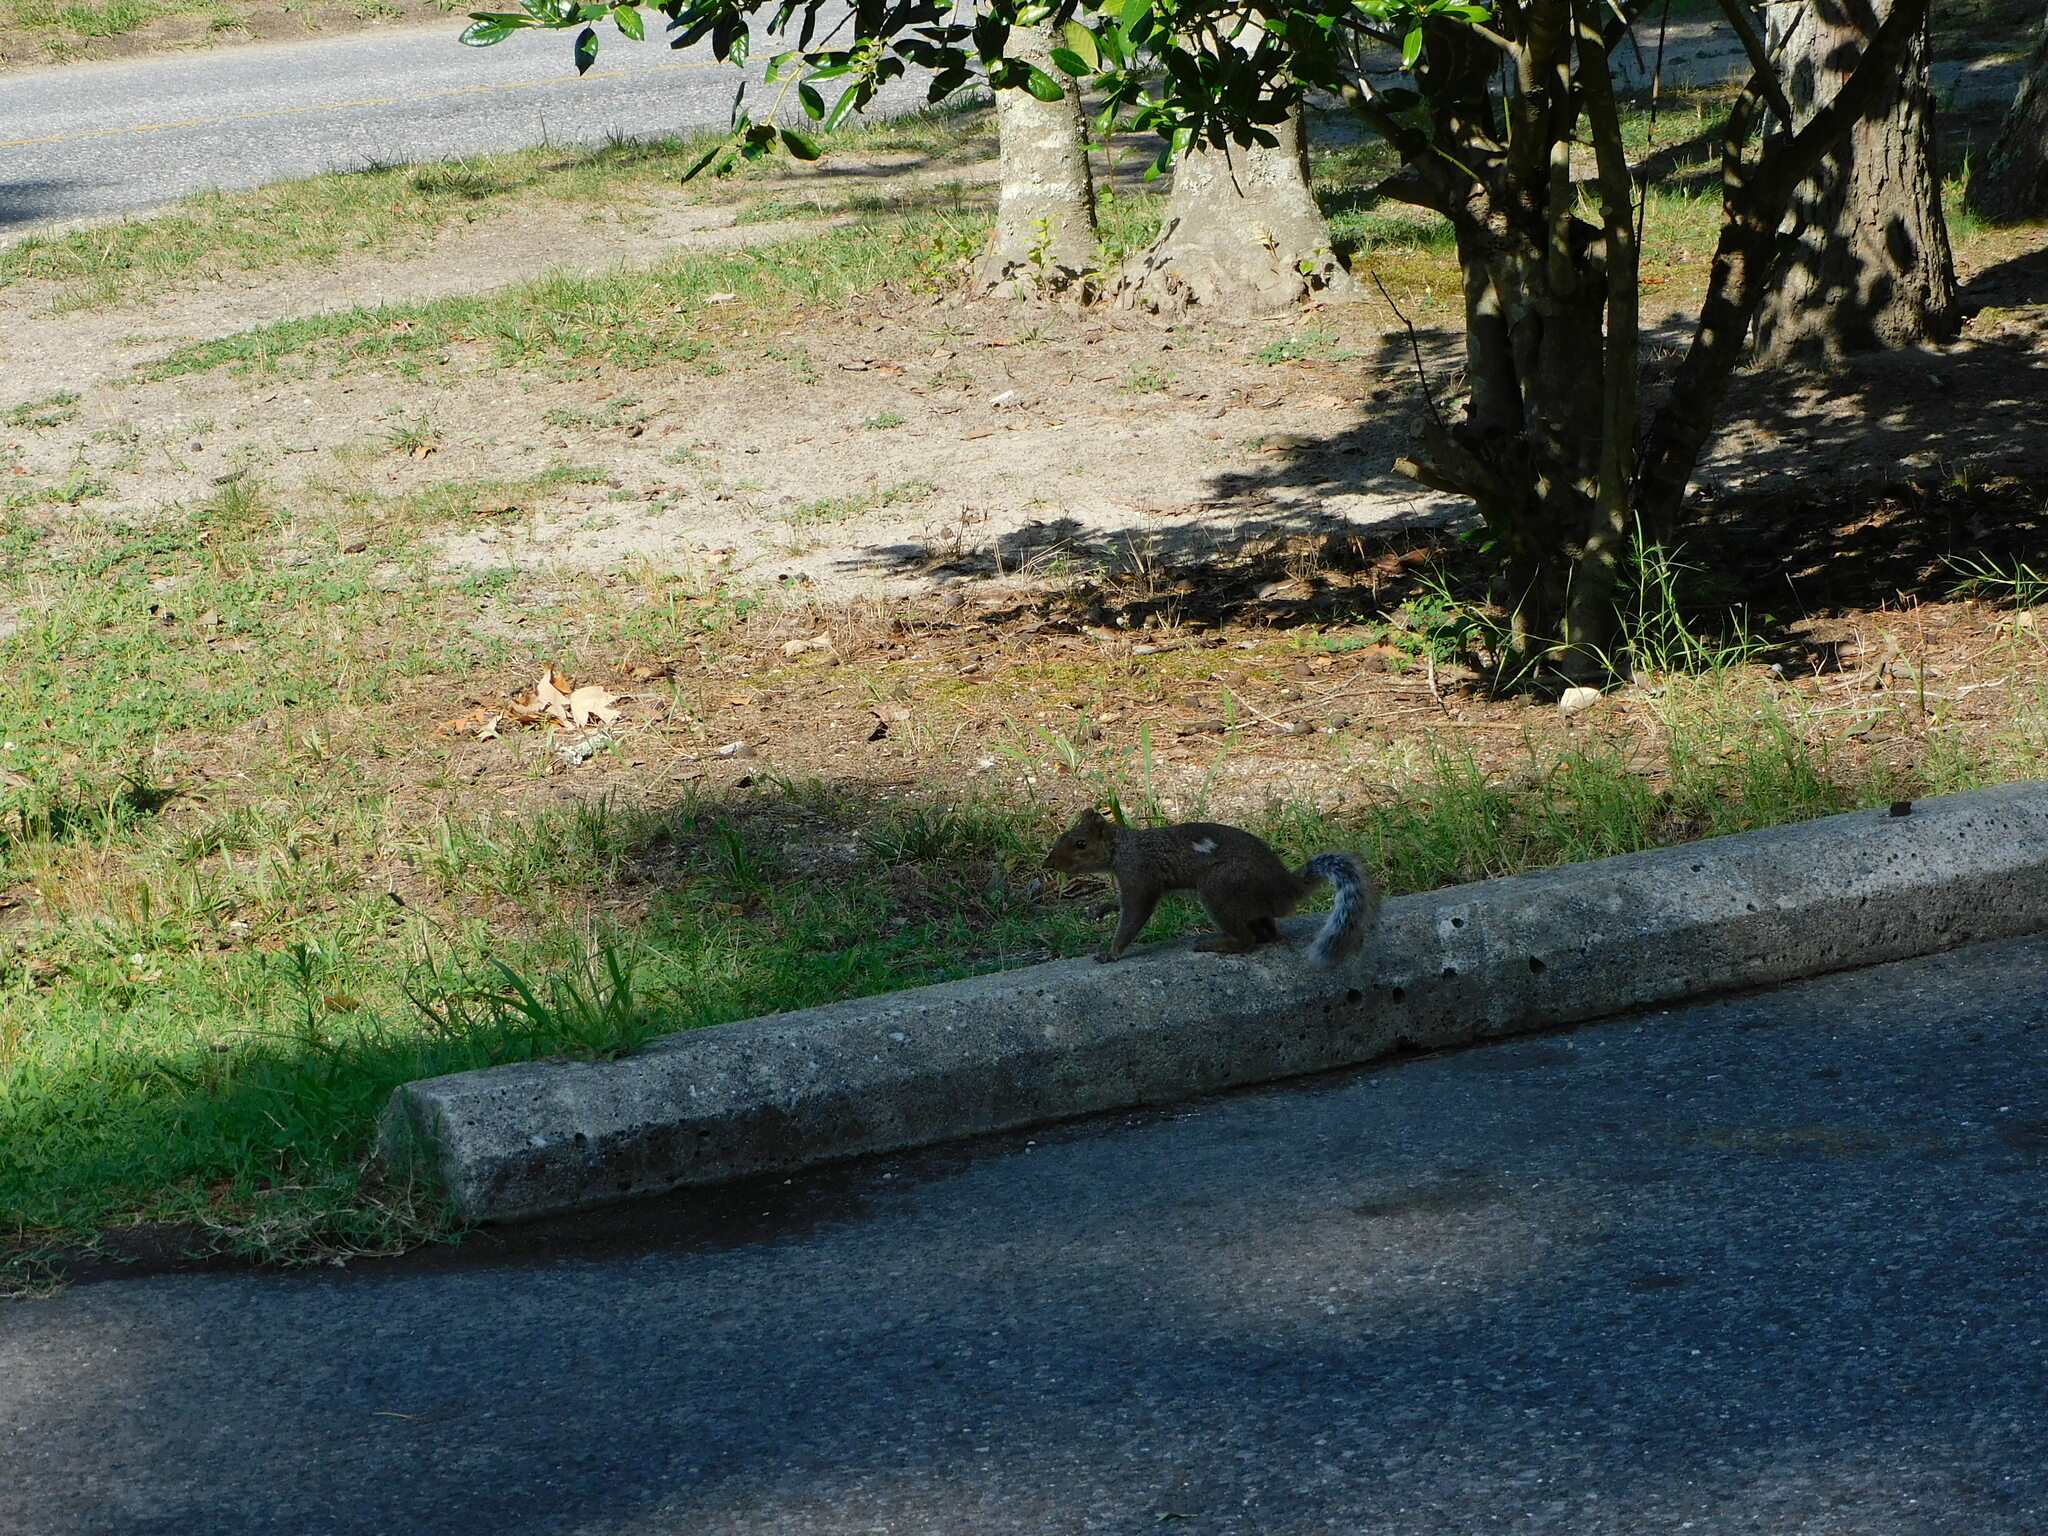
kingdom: Animalia
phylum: Chordata
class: Mammalia
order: Rodentia
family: Sciuridae
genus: Sciurus
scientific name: Sciurus carolinensis
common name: Eastern gray squirrel
